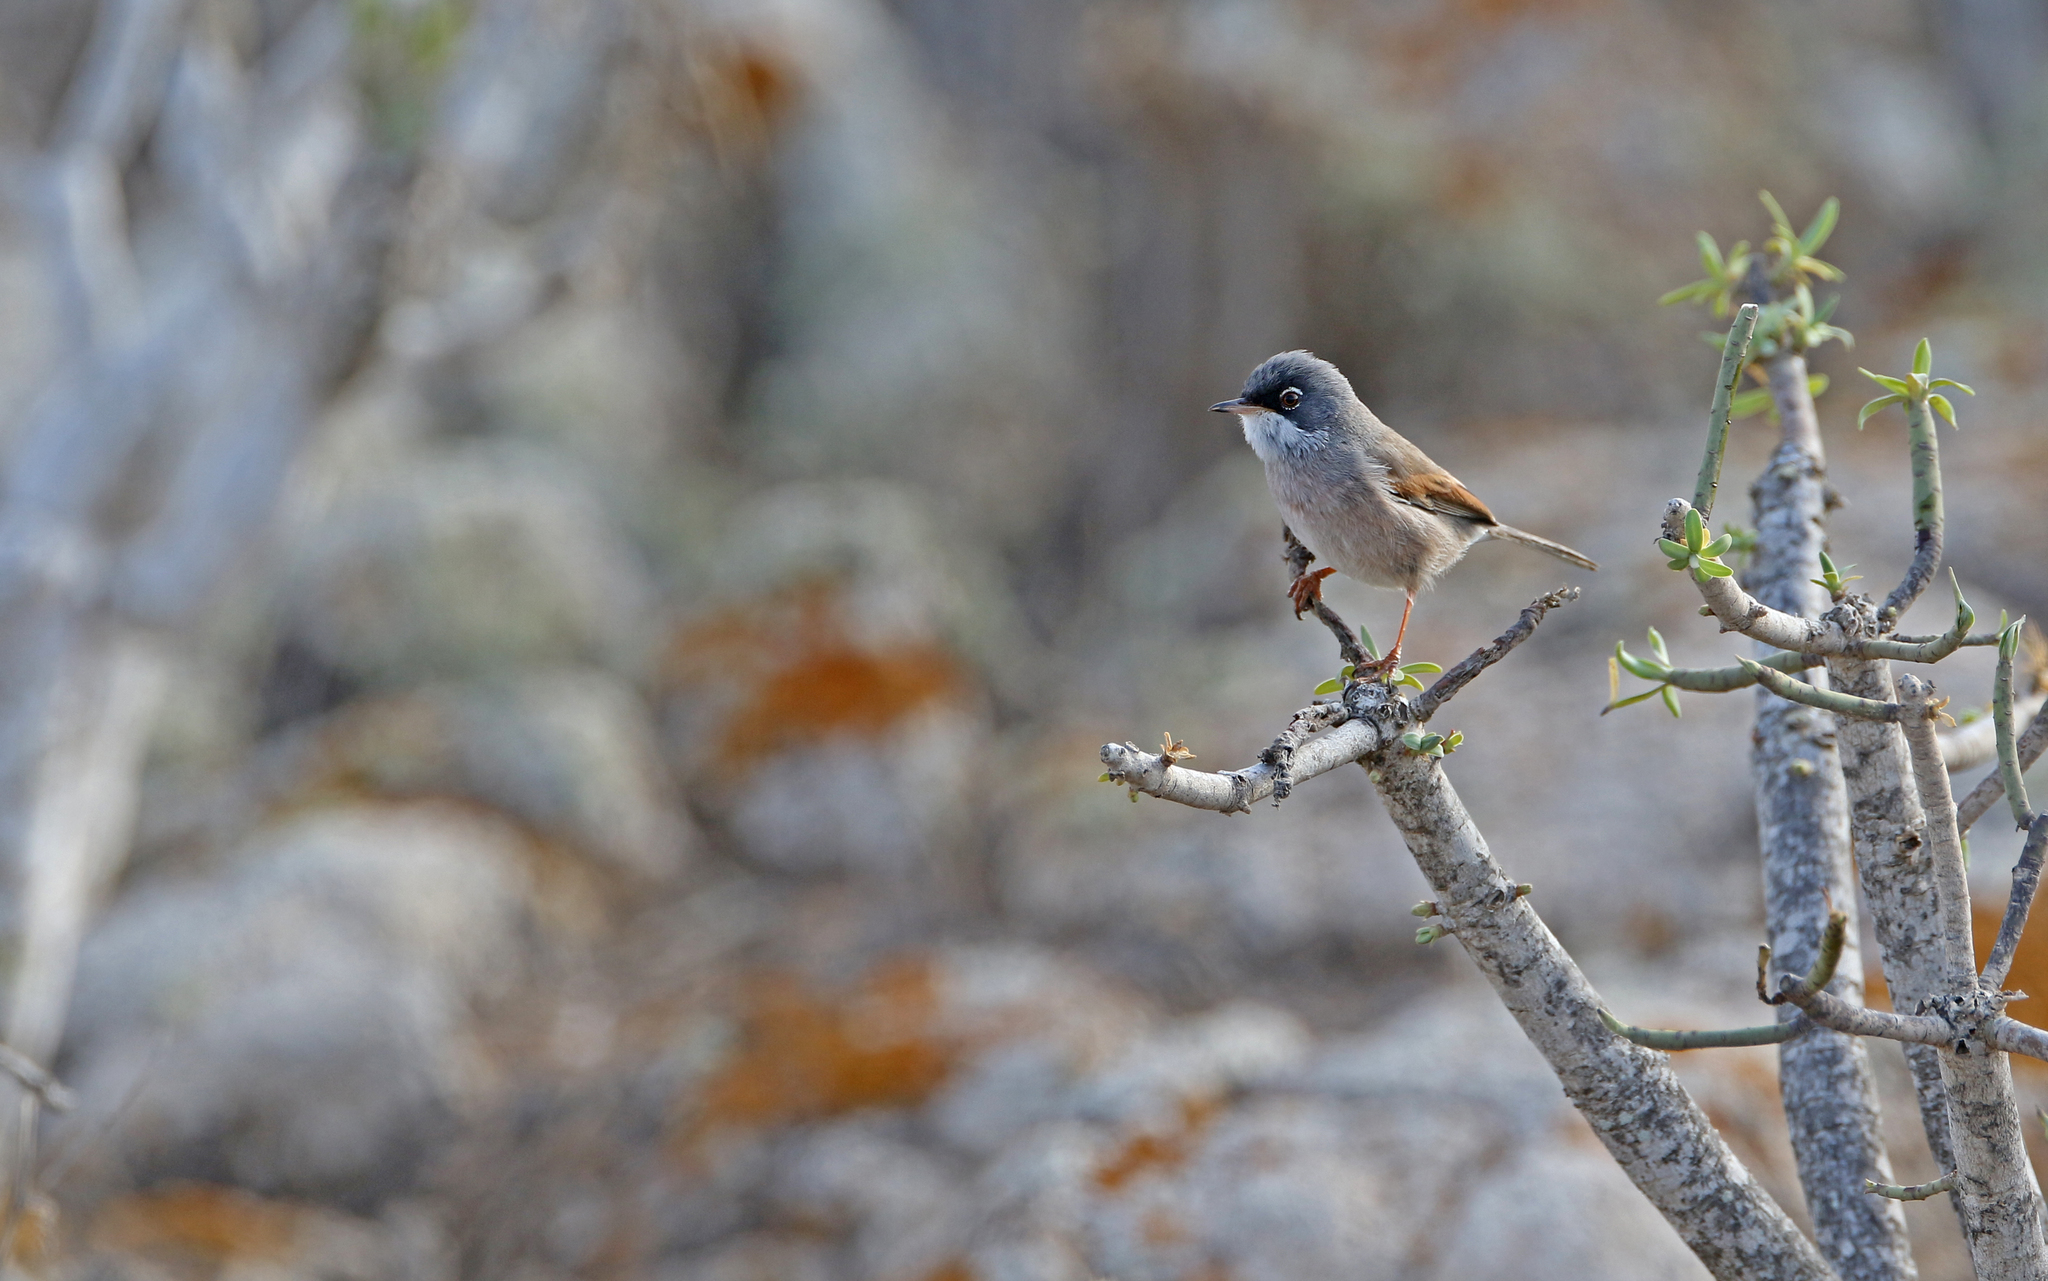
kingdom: Animalia
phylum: Chordata
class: Aves
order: Passeriformes
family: Sylviidae
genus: Sylvia
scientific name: Sylvia conspicillata
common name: Spectacled warbler
